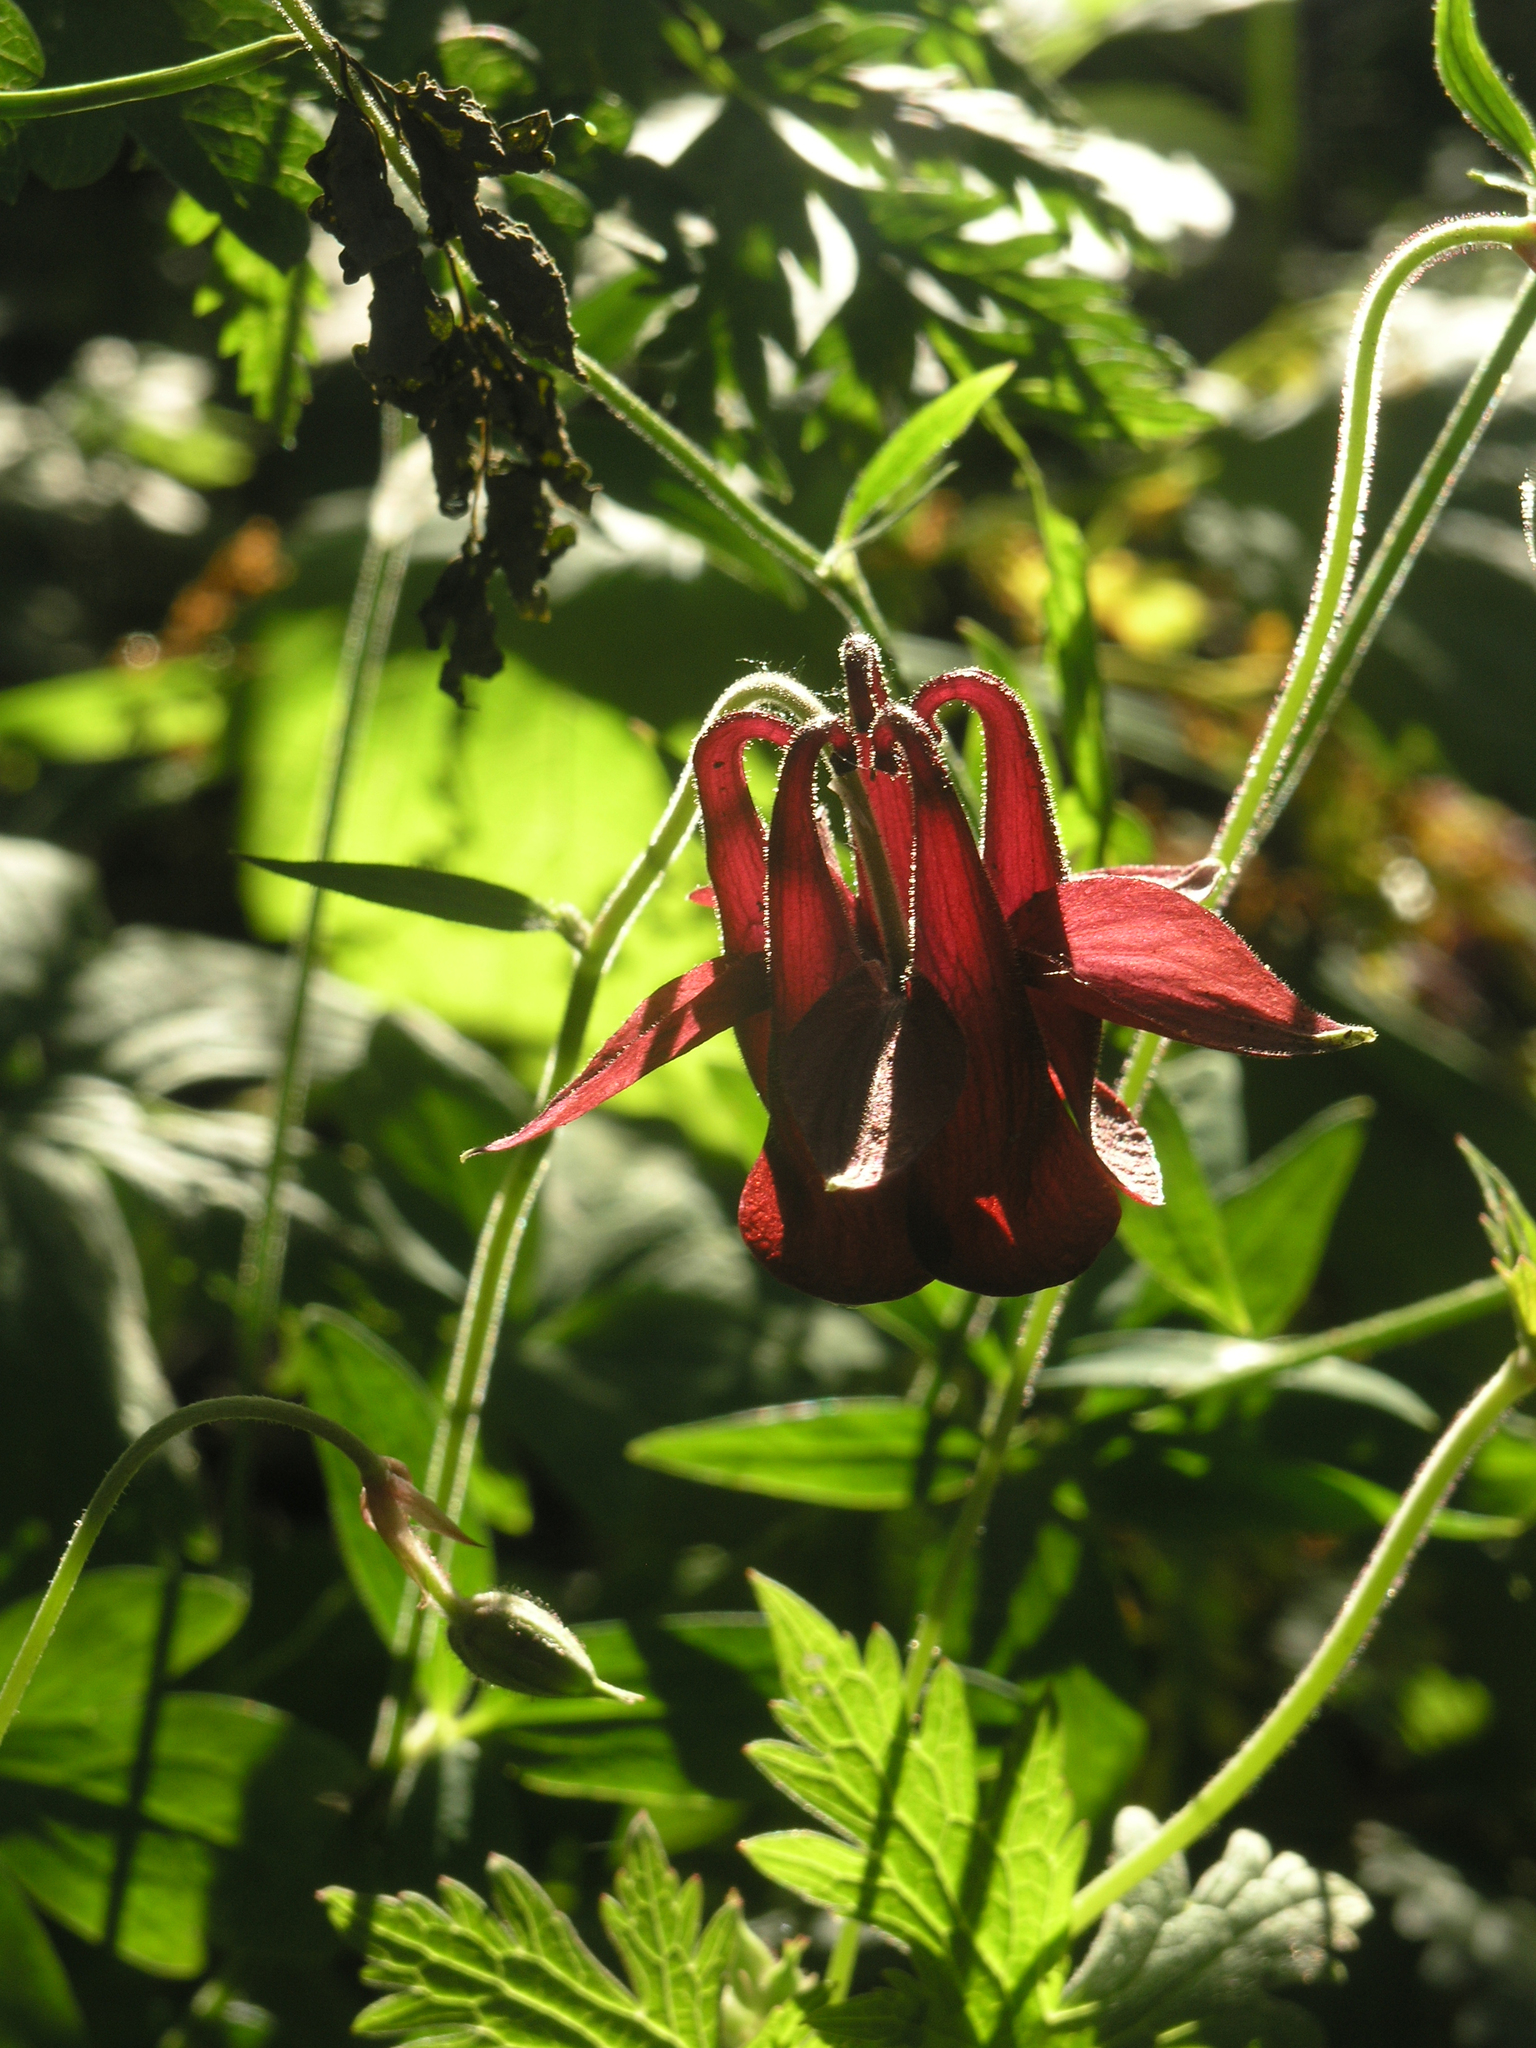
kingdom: Plantae
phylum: Tracheophyta
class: Magnoliopsida
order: Ranunculales
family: Ranunculaceae
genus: Aquilegia
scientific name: Aquilegia atrovinosa
